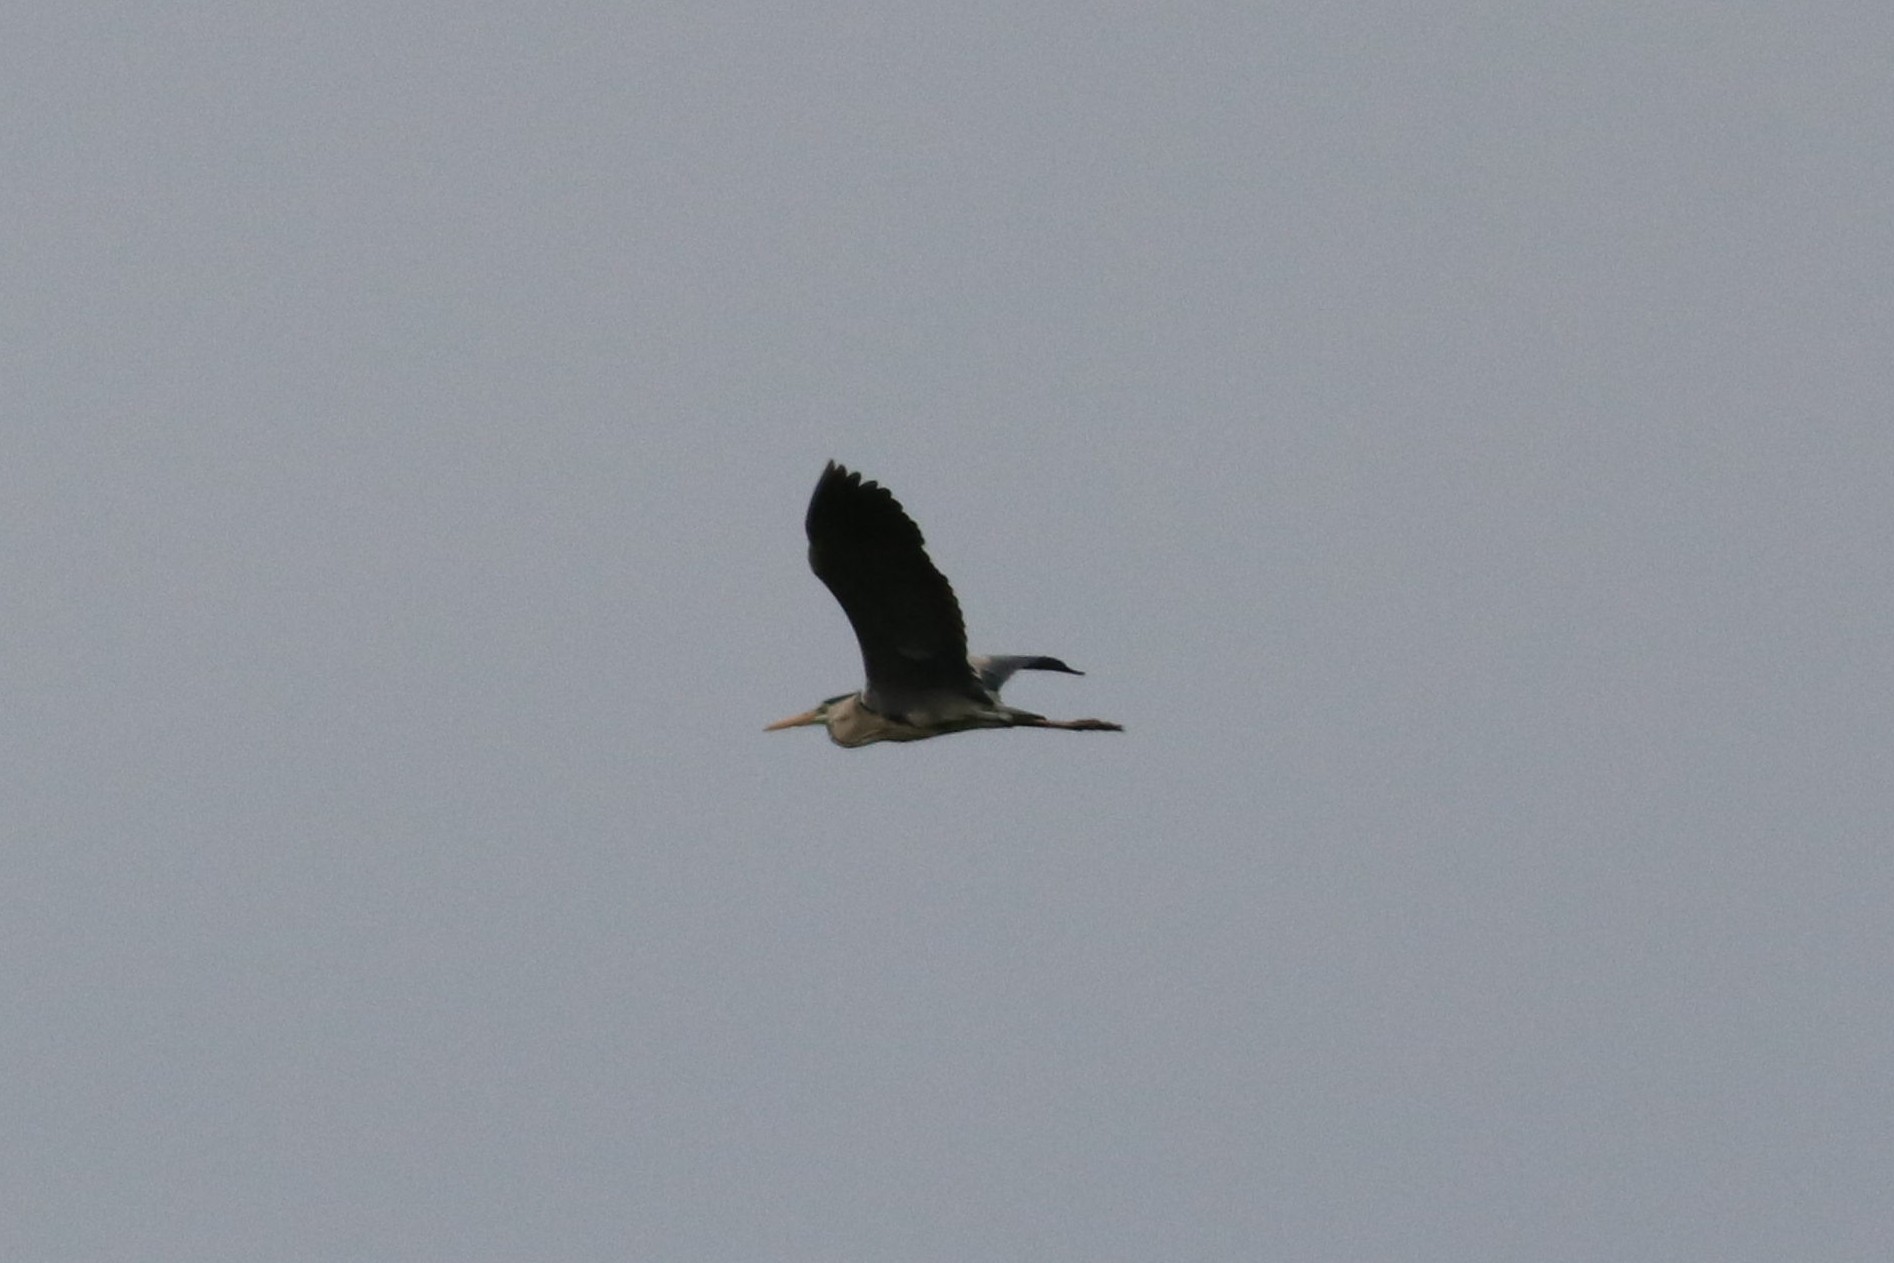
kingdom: Animalia
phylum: Chordata
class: Aves
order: Pelecaniformes
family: Ardeidae
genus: Ardea
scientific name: Ardea cinerea
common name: Grey heron
